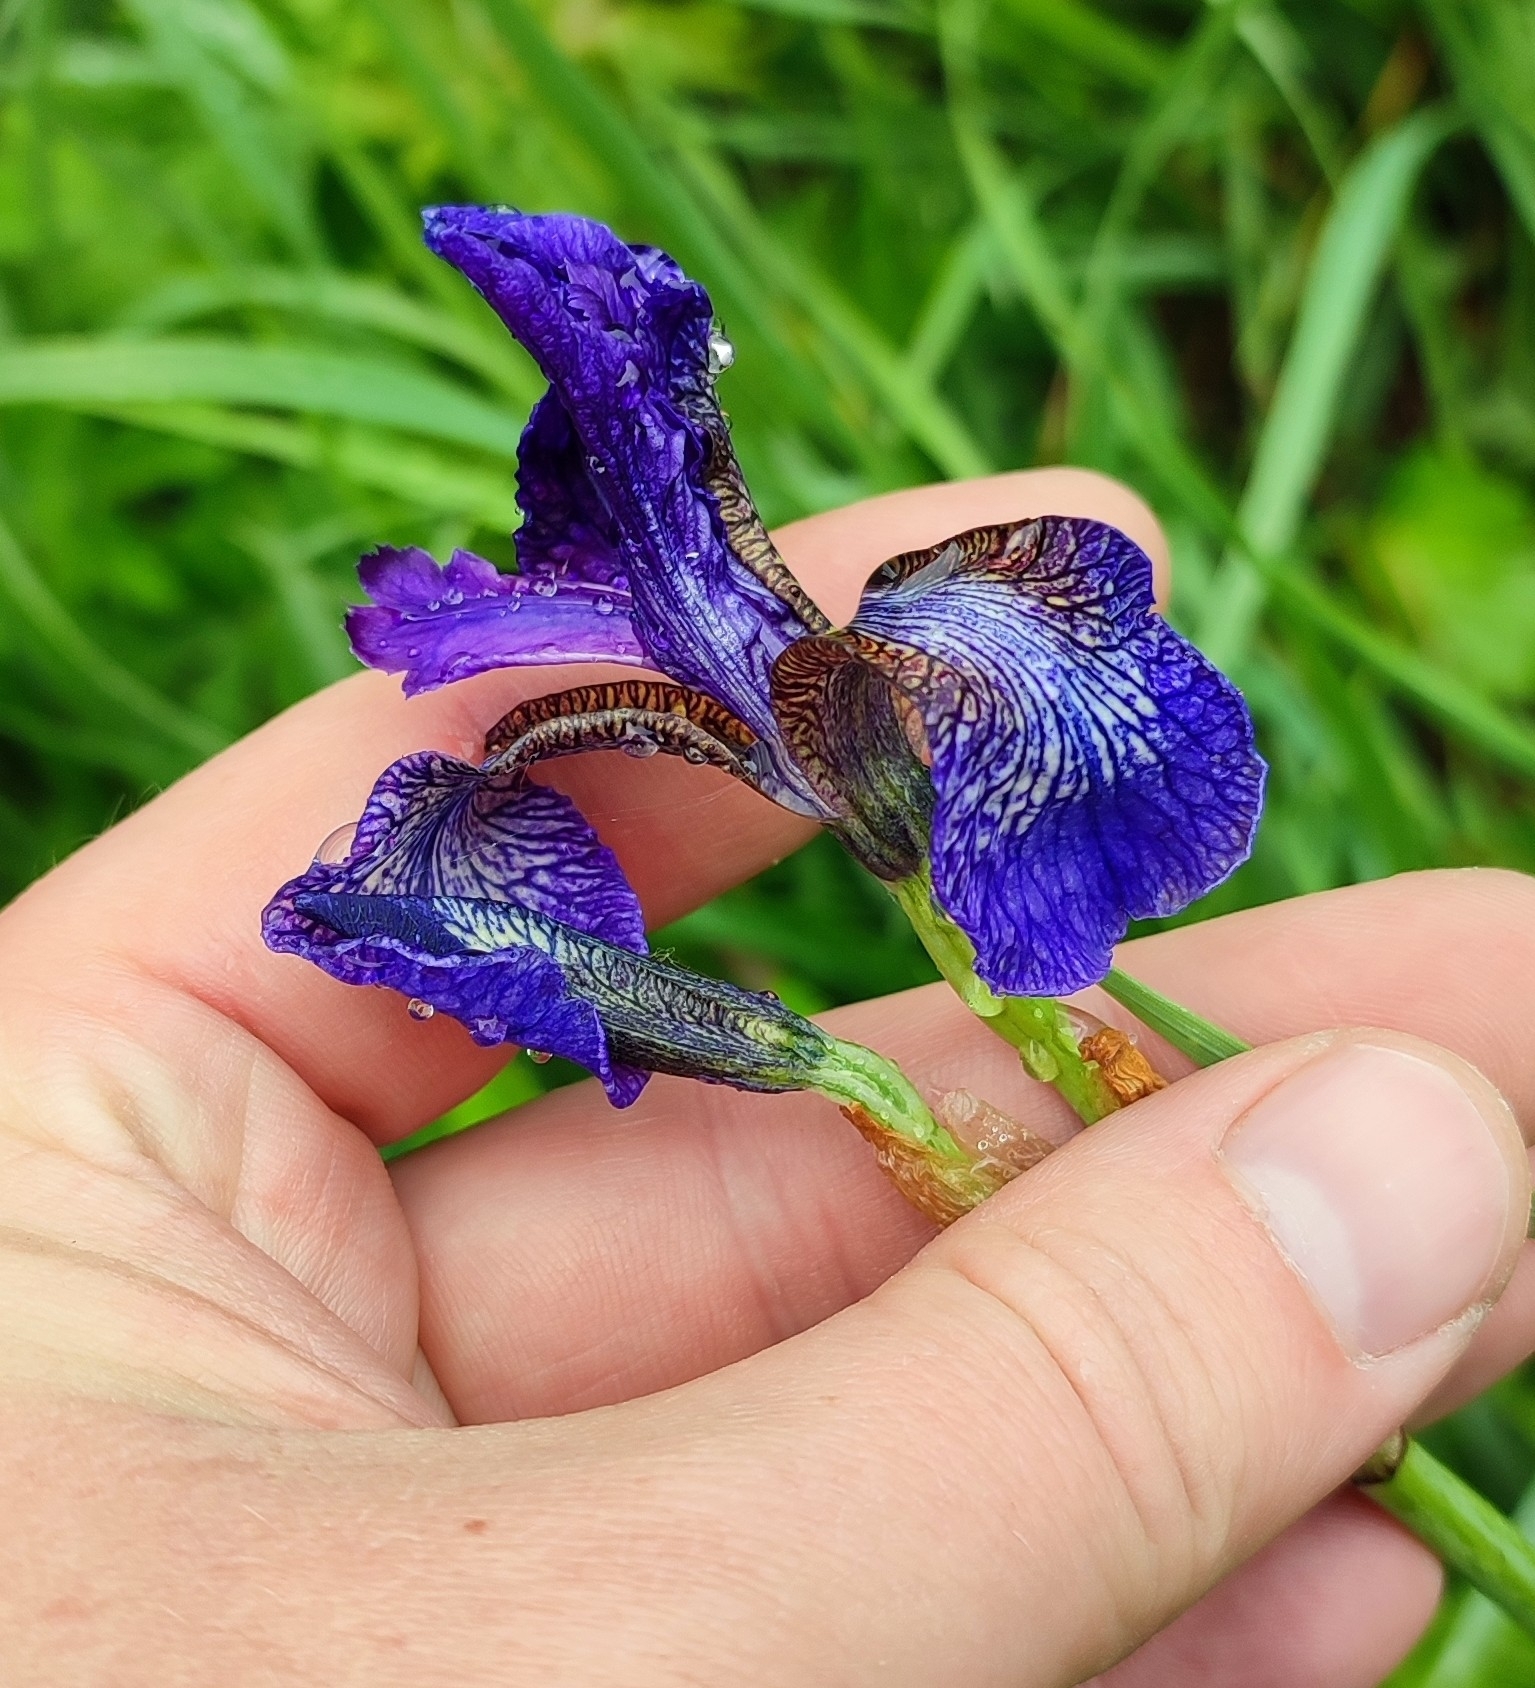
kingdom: Plantae
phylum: Tracheophyta
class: Liliopsida
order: Asparagales
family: Iridaceae
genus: Iris
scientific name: Iris sibirica
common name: Siberian iris
